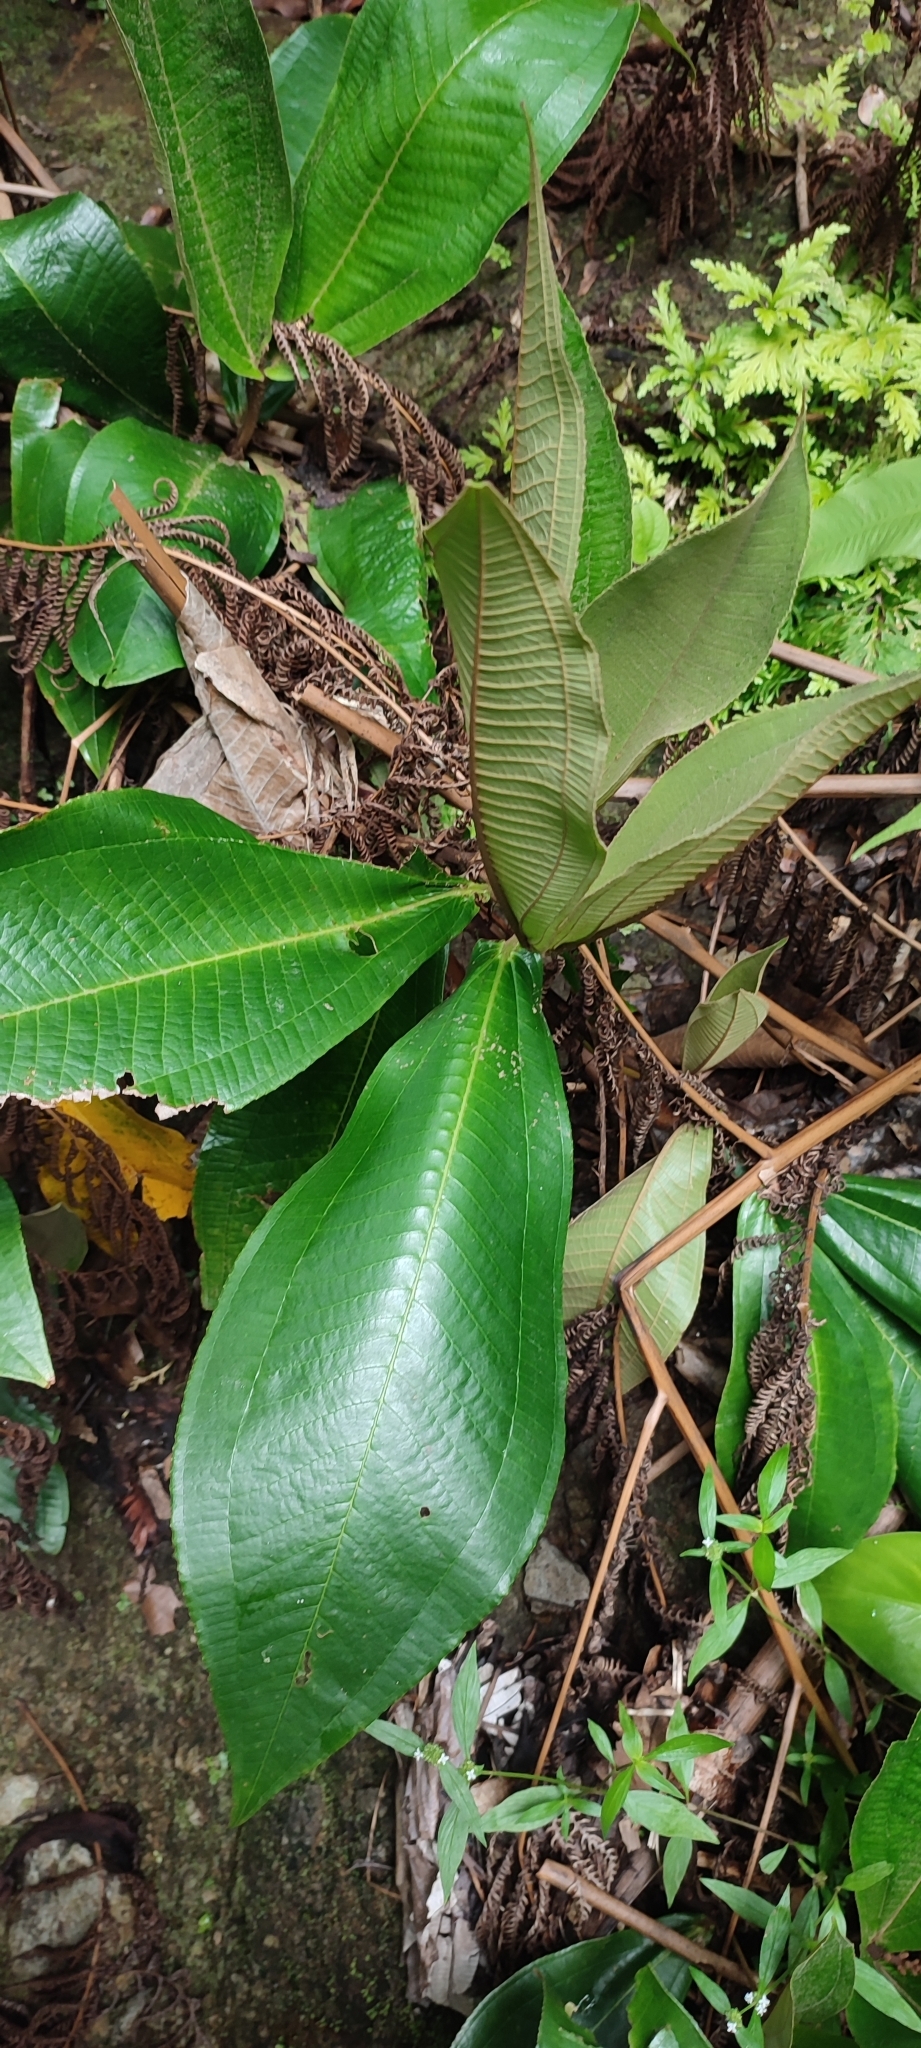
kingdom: Plantae
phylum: Tracheophyta
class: Magnoliopsida
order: Myrtales
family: Melastomataceae
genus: Miconia
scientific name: Miconia impetiolaris
